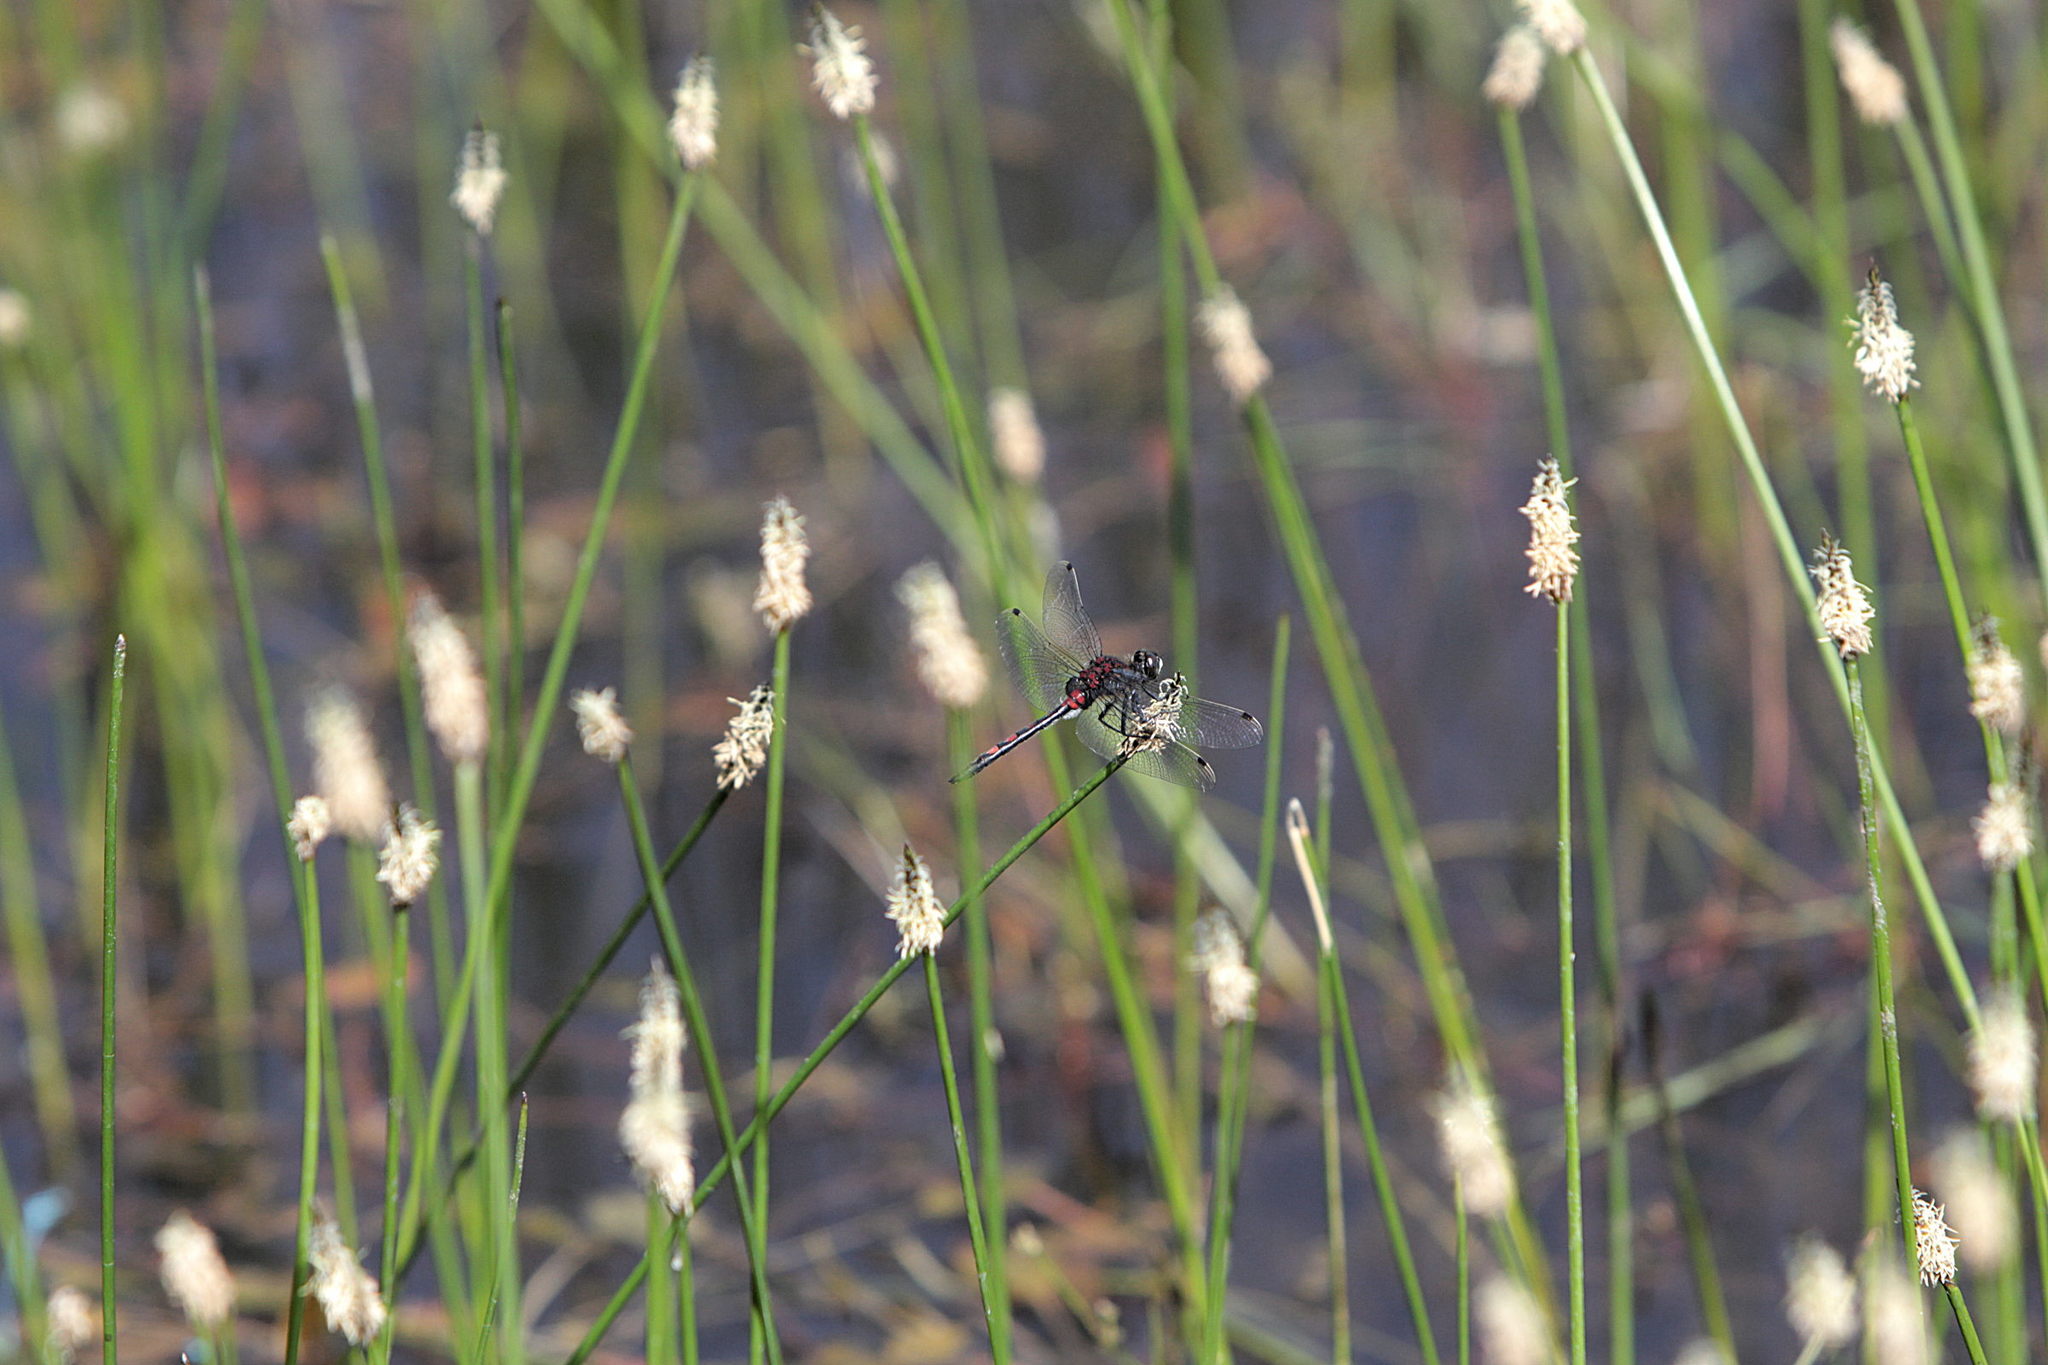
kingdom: Animalia
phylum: Arthropoda
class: Insecta
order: Odonata
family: Libellulidae
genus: Leucorrhinia
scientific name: Leucorrhinia dubia
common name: White-faced darter
